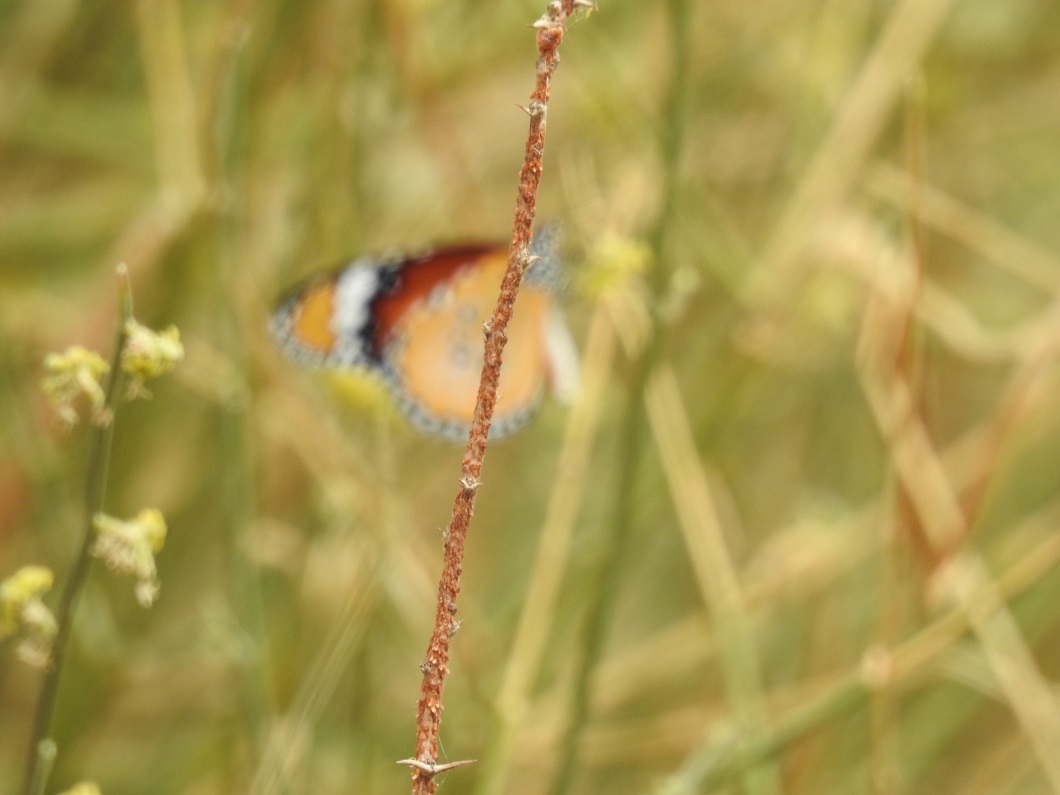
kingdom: Animalia
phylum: Arthropoda
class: Insecta
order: Lepidoptera
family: Nymphalidae
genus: Danaus
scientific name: Danaus chrysippus
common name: Plain tiger
